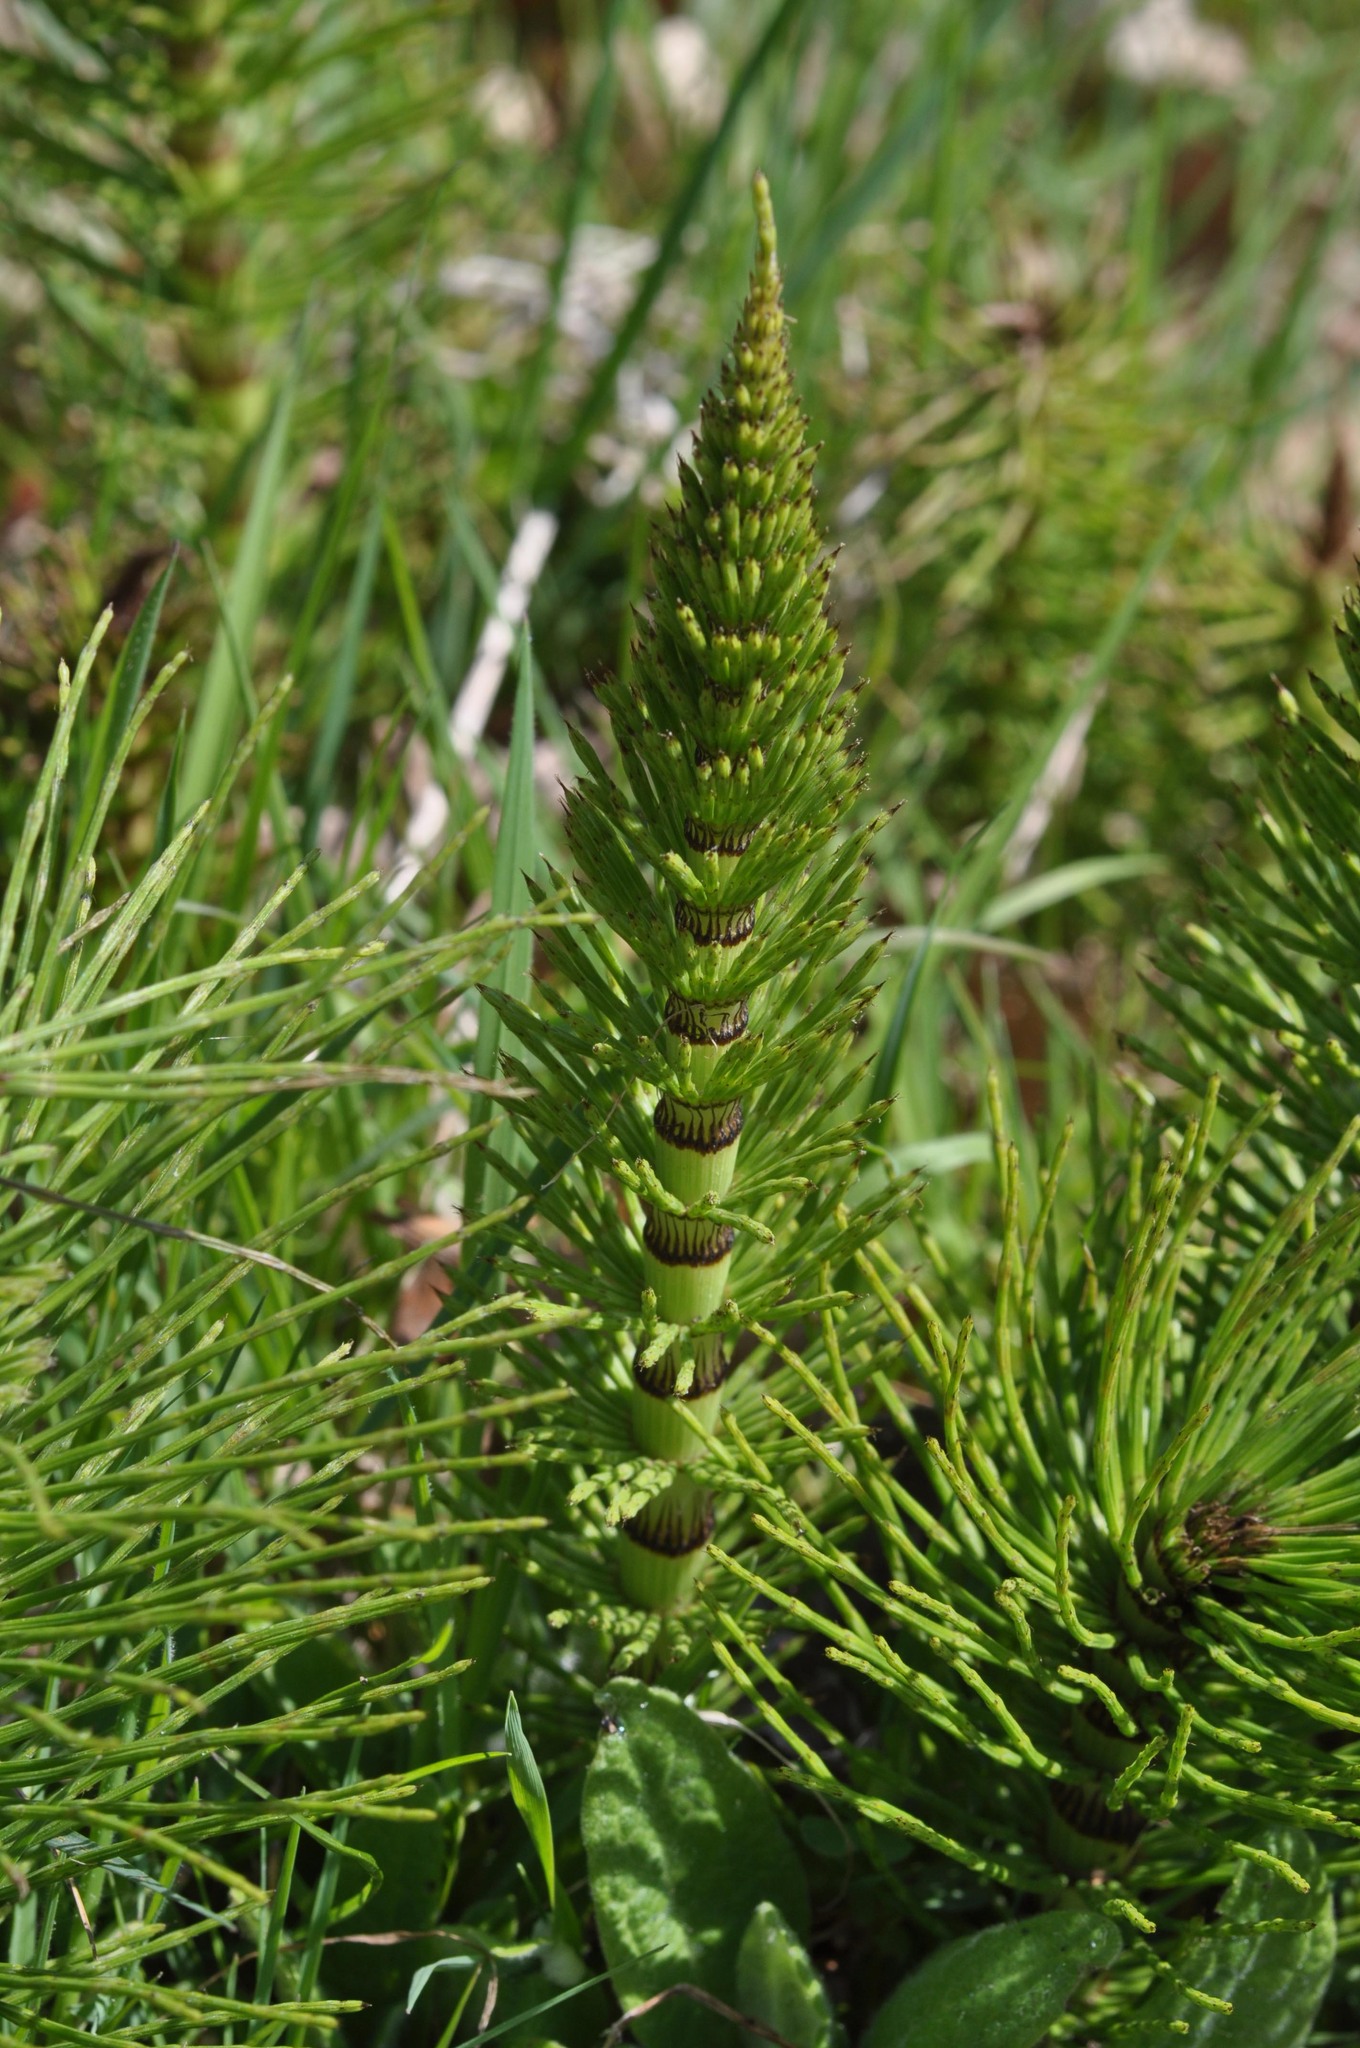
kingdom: Plantae
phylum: Tracheophyta
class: Polypodiopsida
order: Equisetales
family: Equisetaceae
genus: Equisetum
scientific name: Equisetum telmateia
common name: Great horsetail
